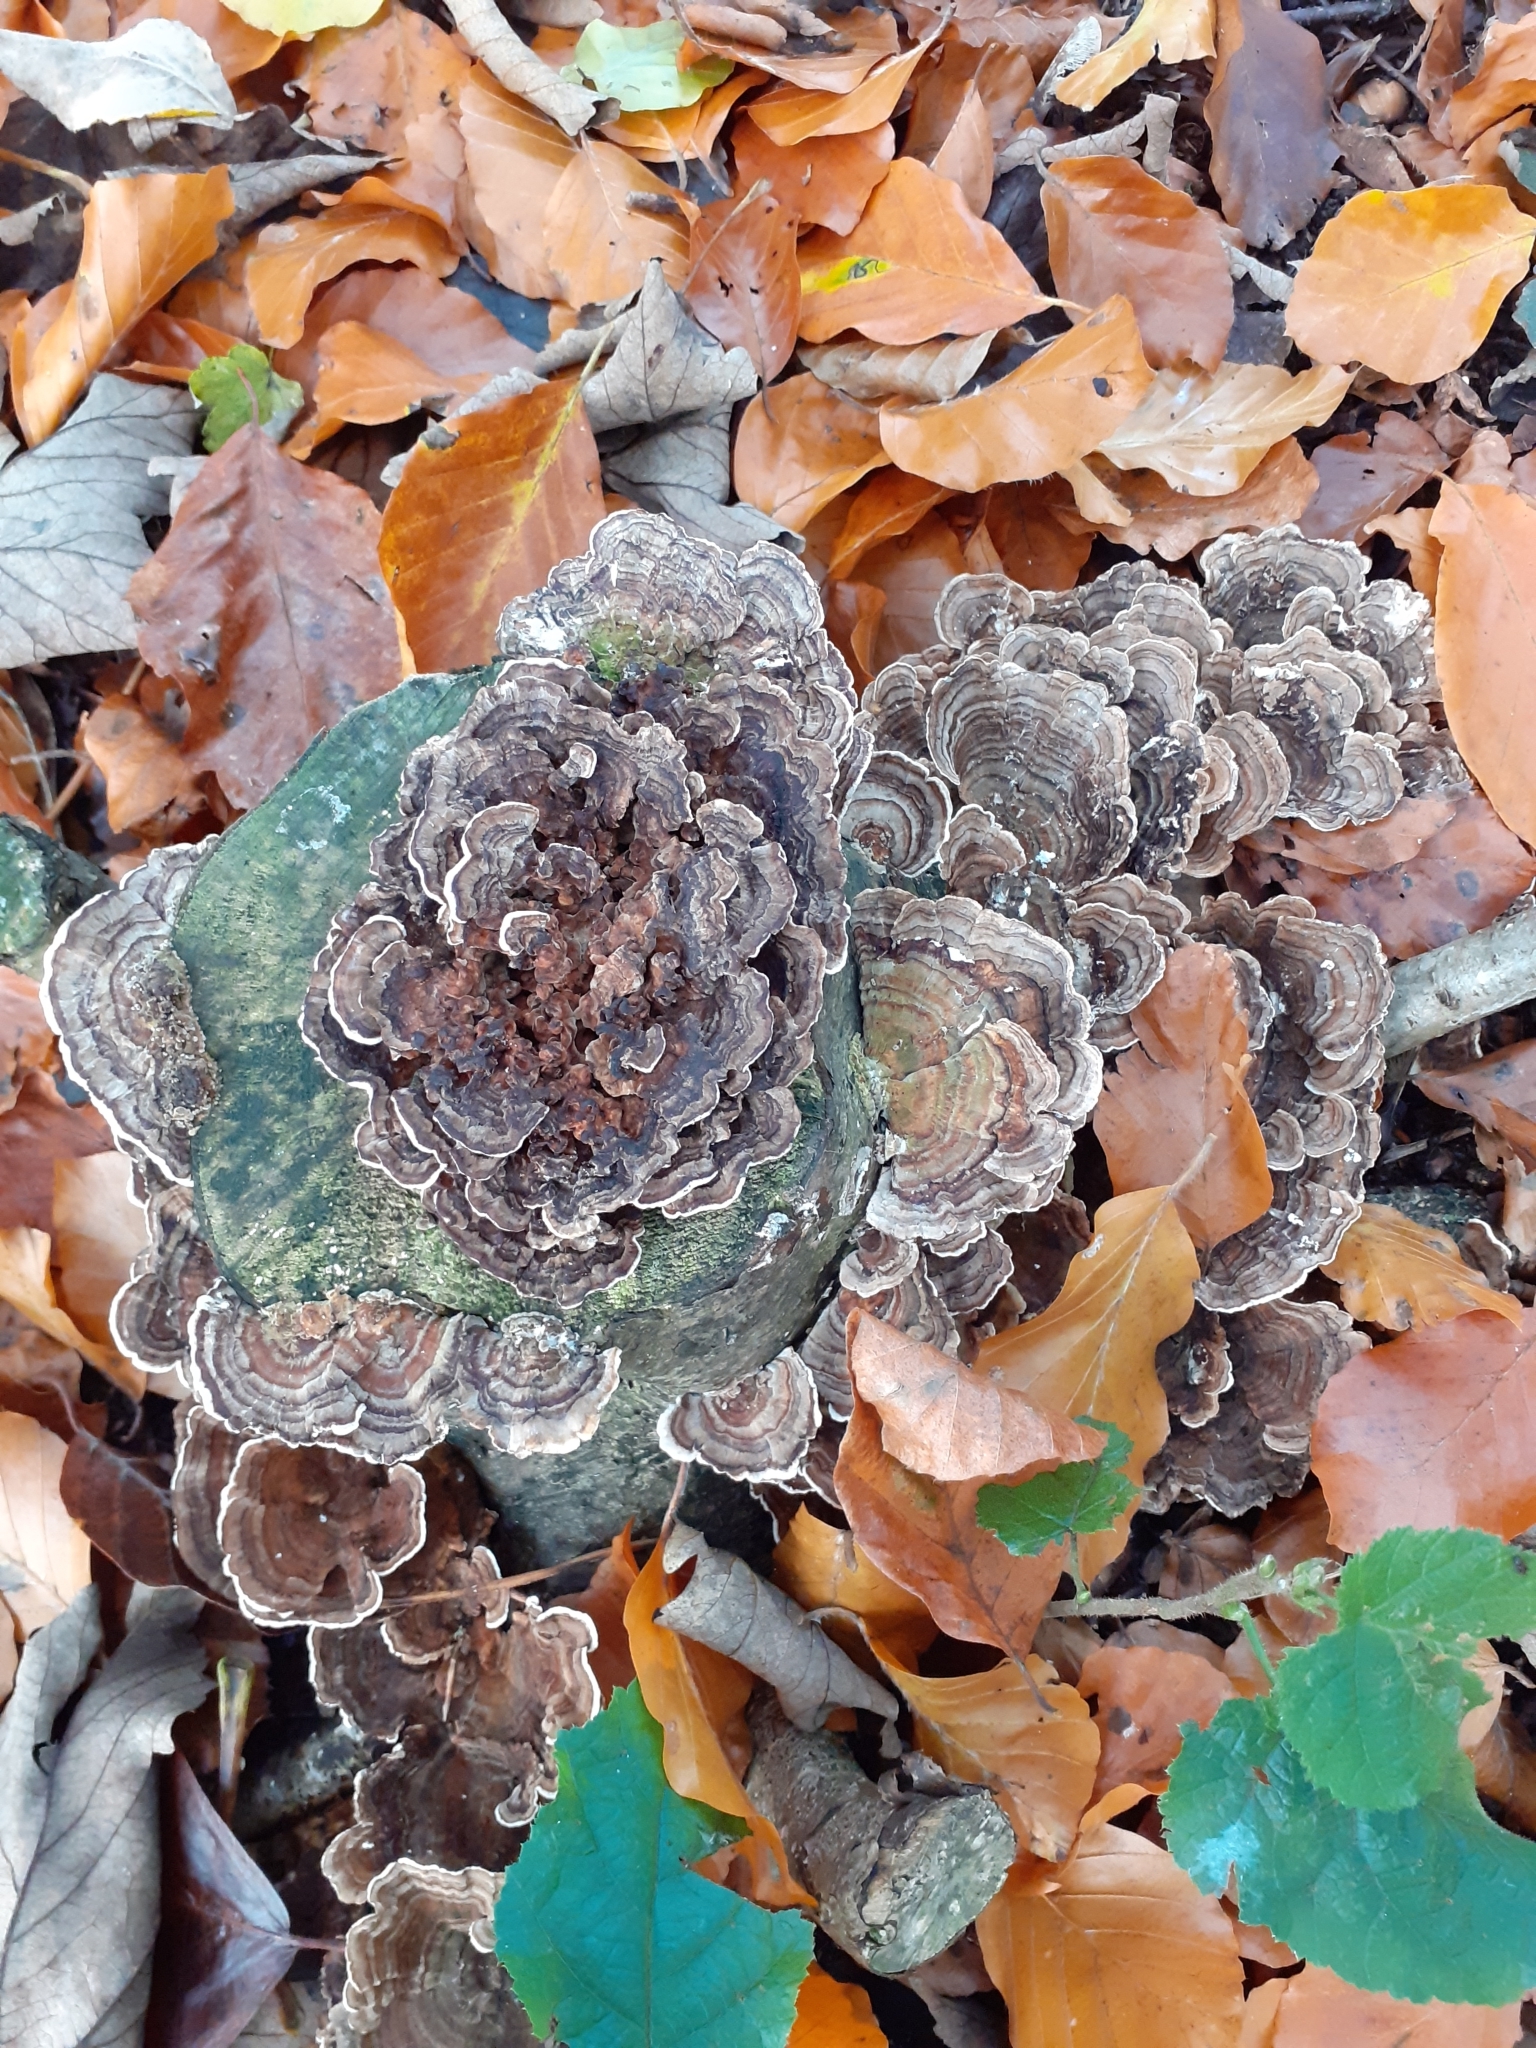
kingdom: Fungi
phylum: Basidiomycota
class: Agaricomycetes
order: Polyporales
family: Polyporaceae
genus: Trametes
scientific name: Trametes versicolor
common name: Turkeytail
